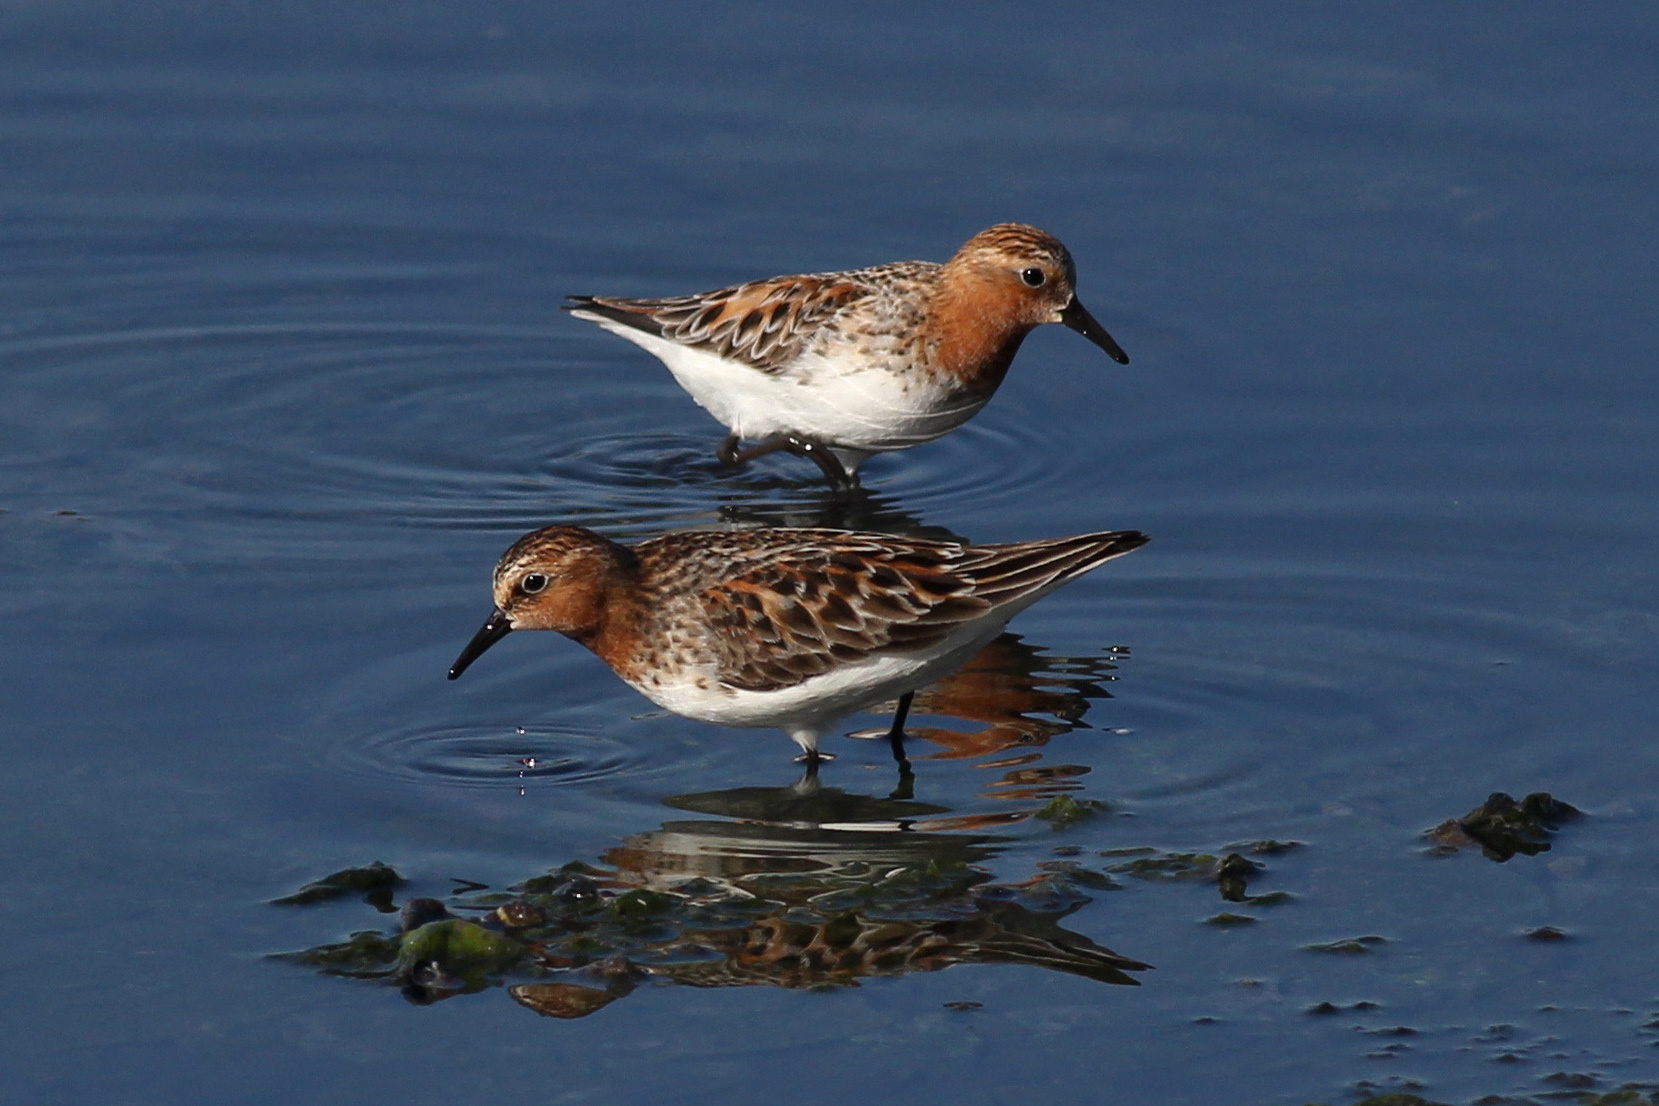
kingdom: Animalia
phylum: Chordata
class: Aves
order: Charadriiformes
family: Scolopacidae
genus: Calidris
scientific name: Calidris ruficollis
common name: Red-necked stint
